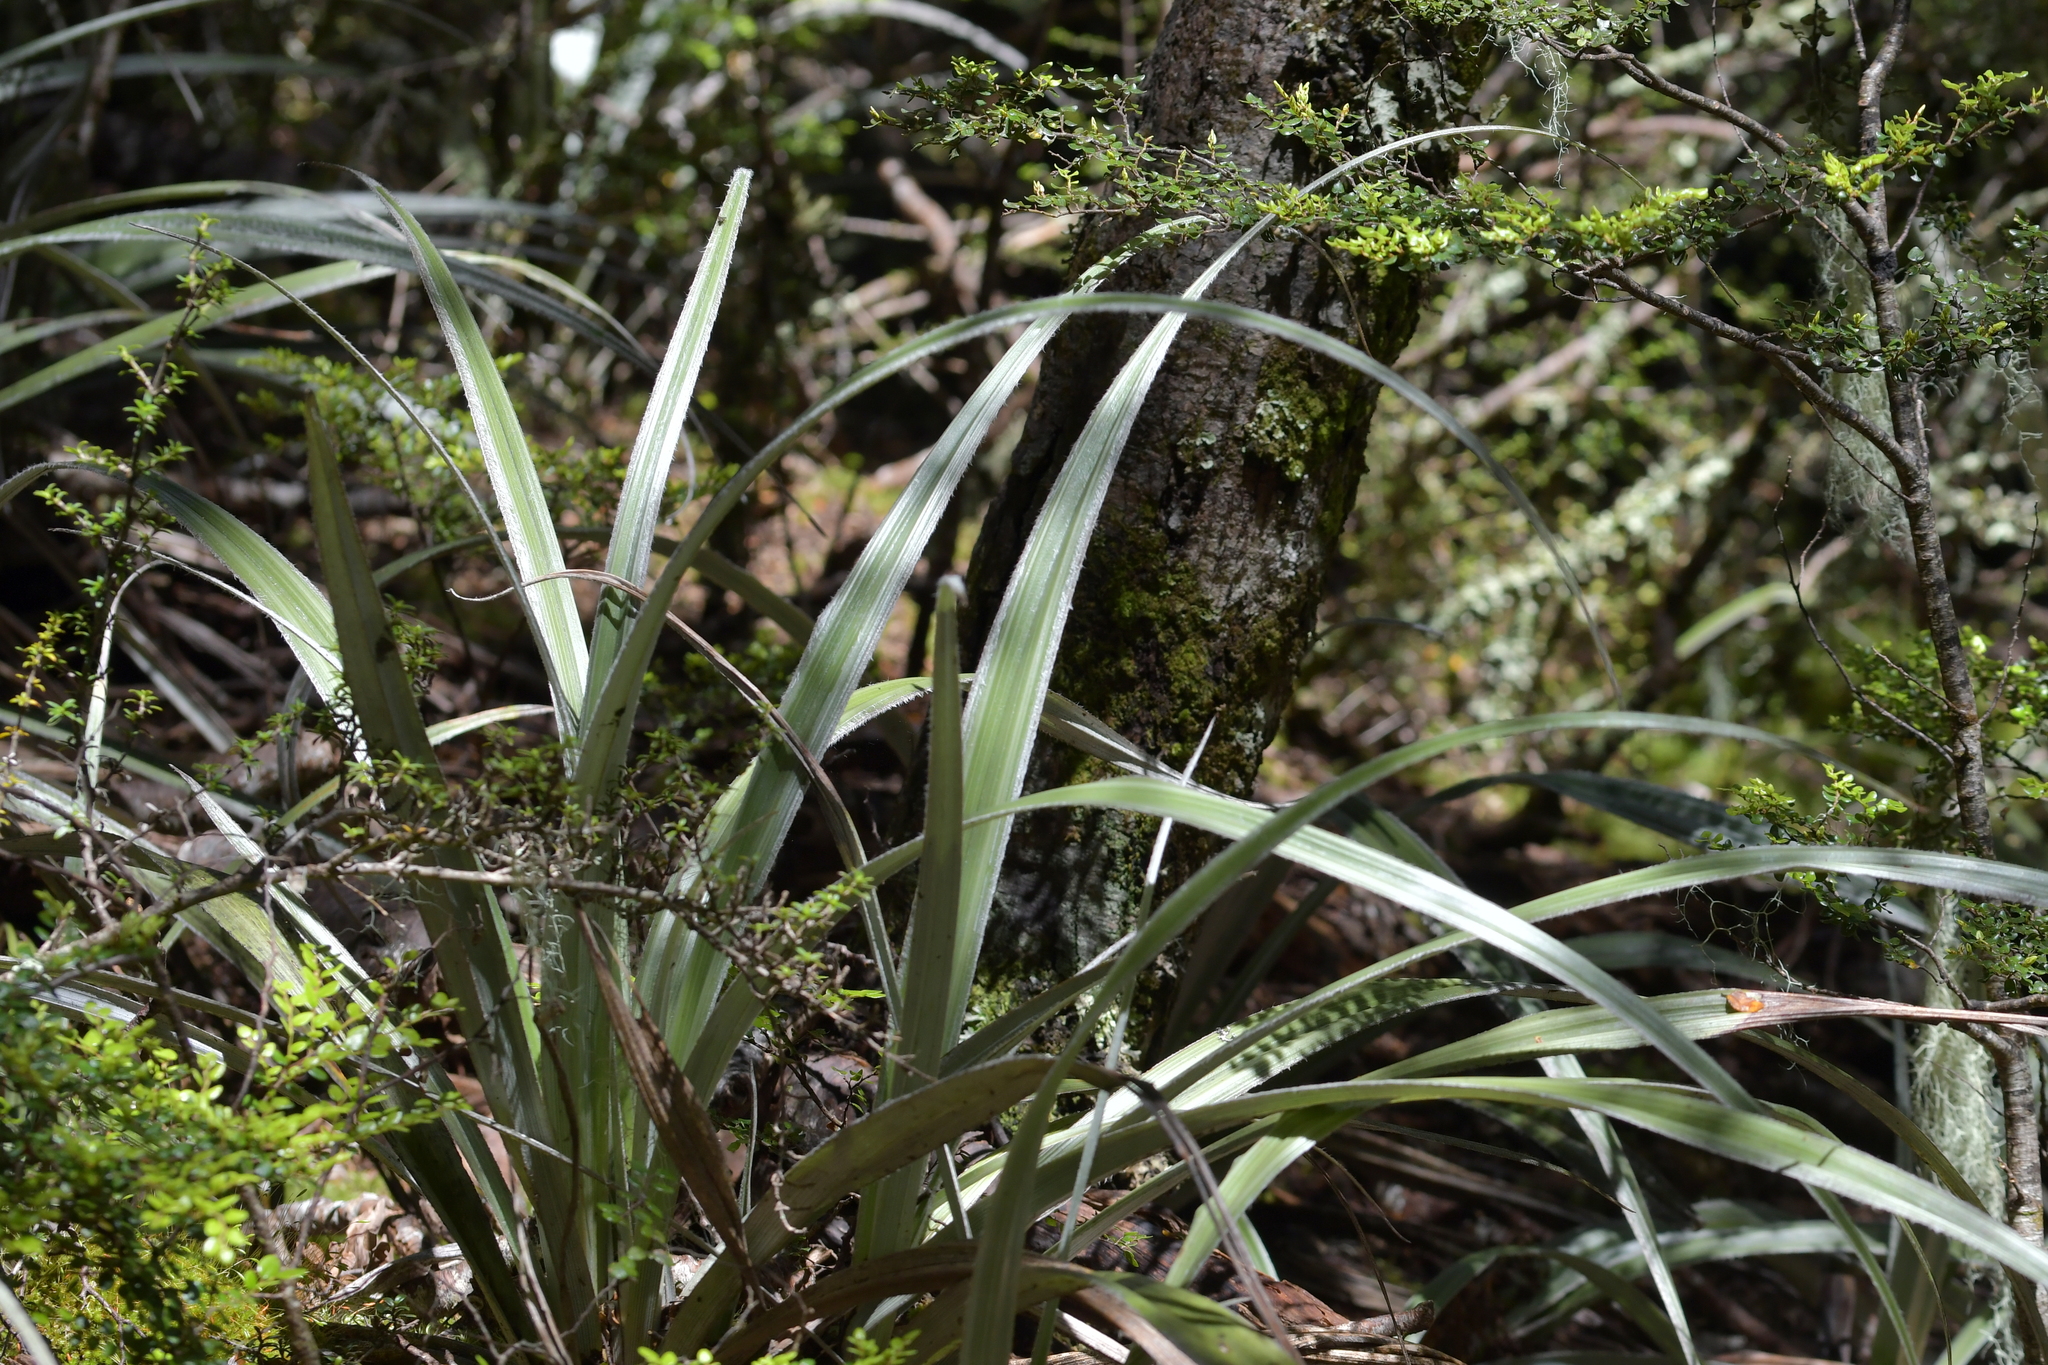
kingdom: Plantae
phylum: Tracheophyta
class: Liliopsida
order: Asparagales
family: Asteliaceae
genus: Astelia
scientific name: Astelia nervosa
